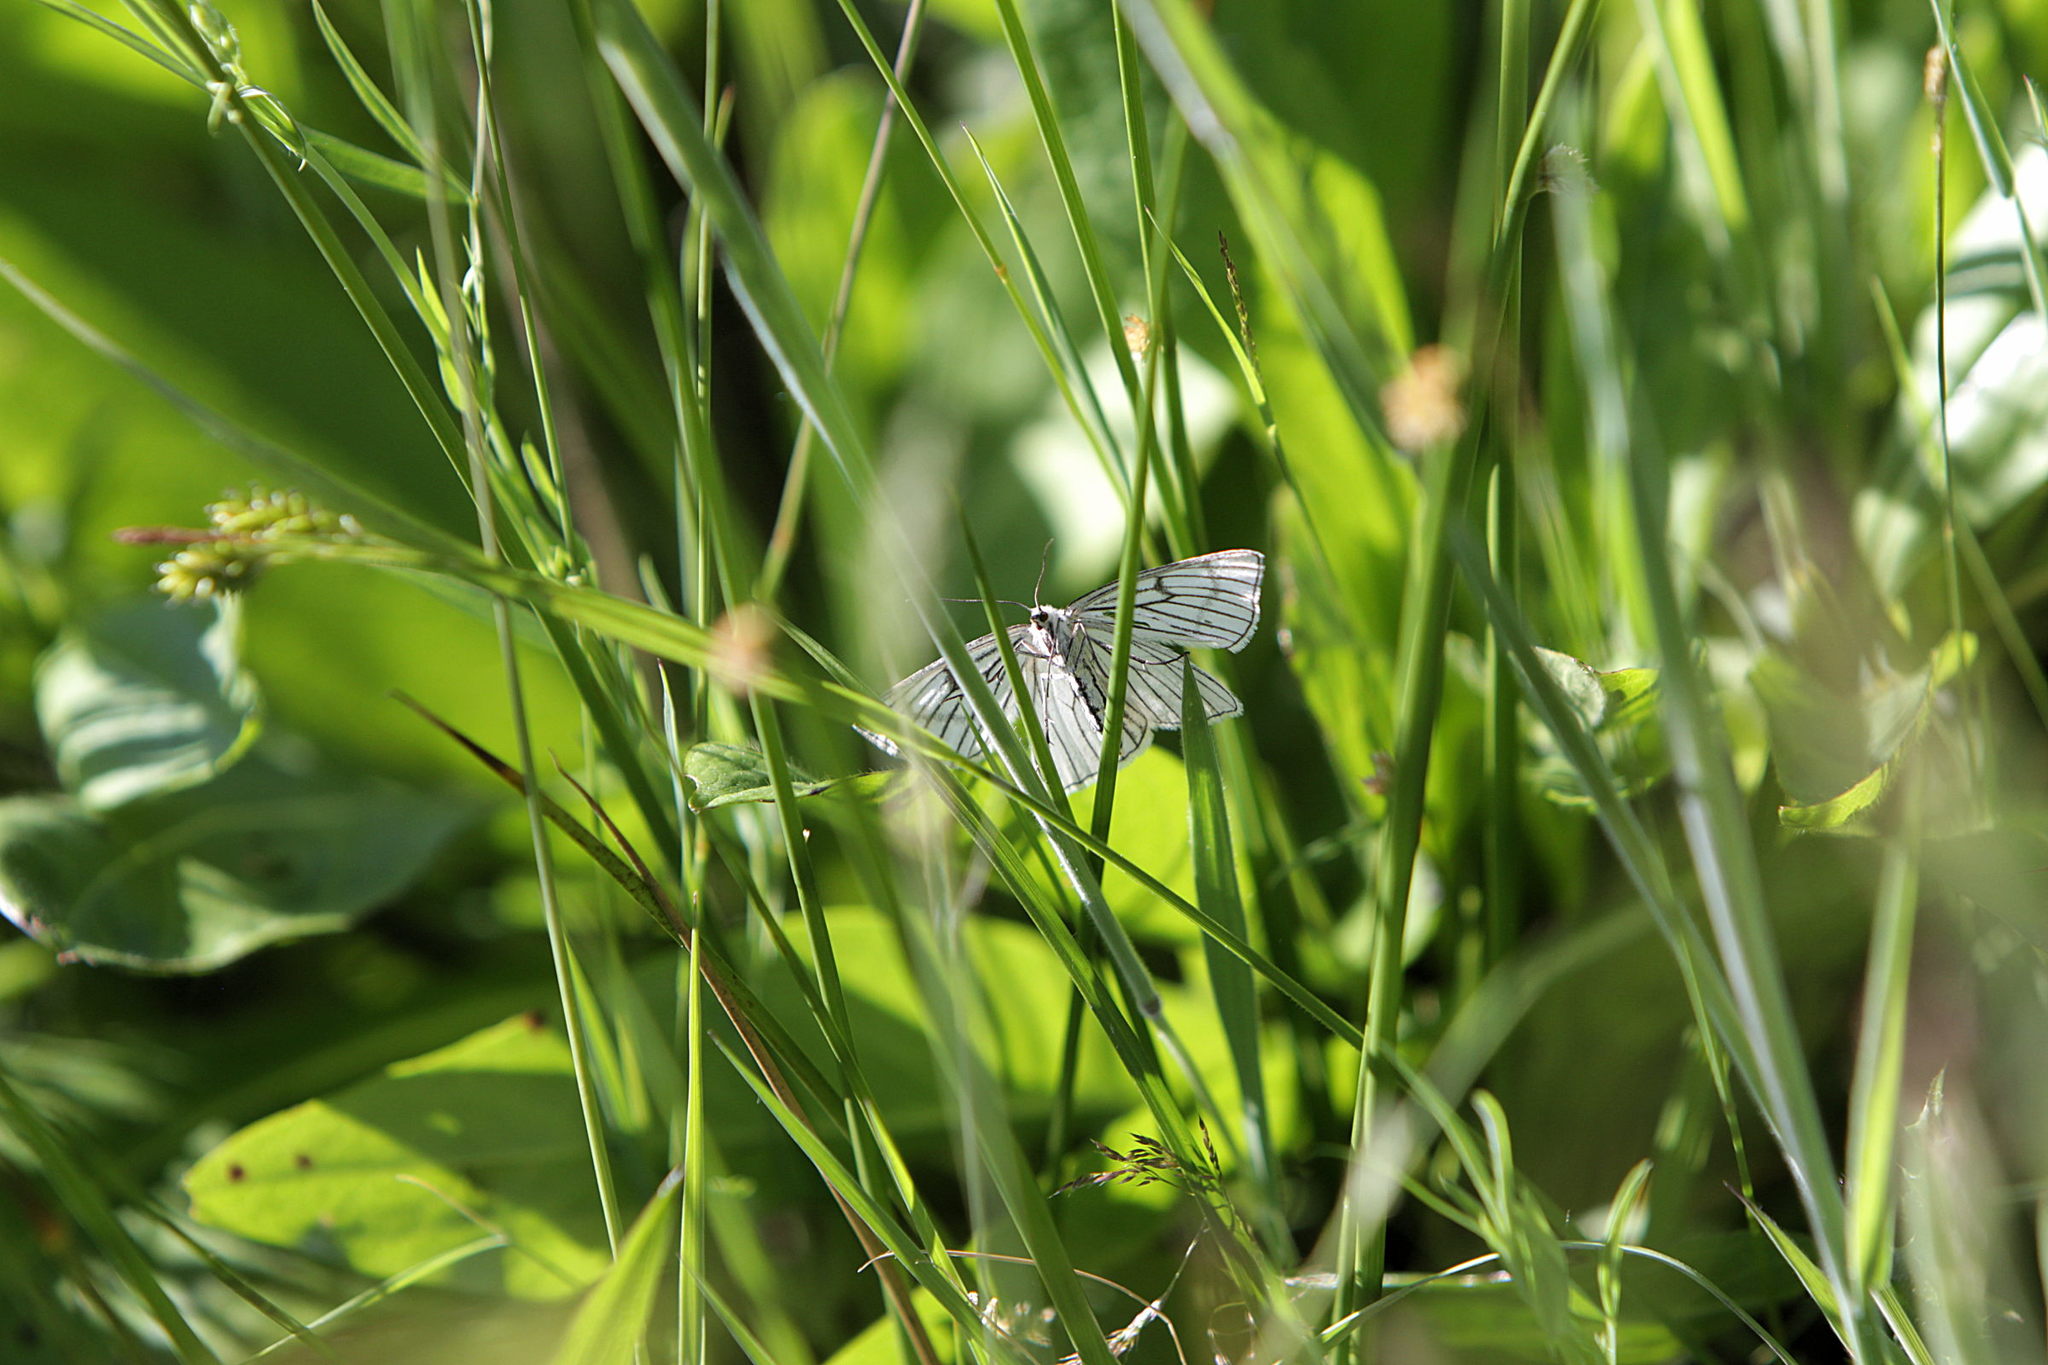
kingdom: Animalia
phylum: Arthropoda
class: Insecta
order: Lepidoptera
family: Geometridae
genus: Siona
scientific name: Siona lineata
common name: Black-veined moth
